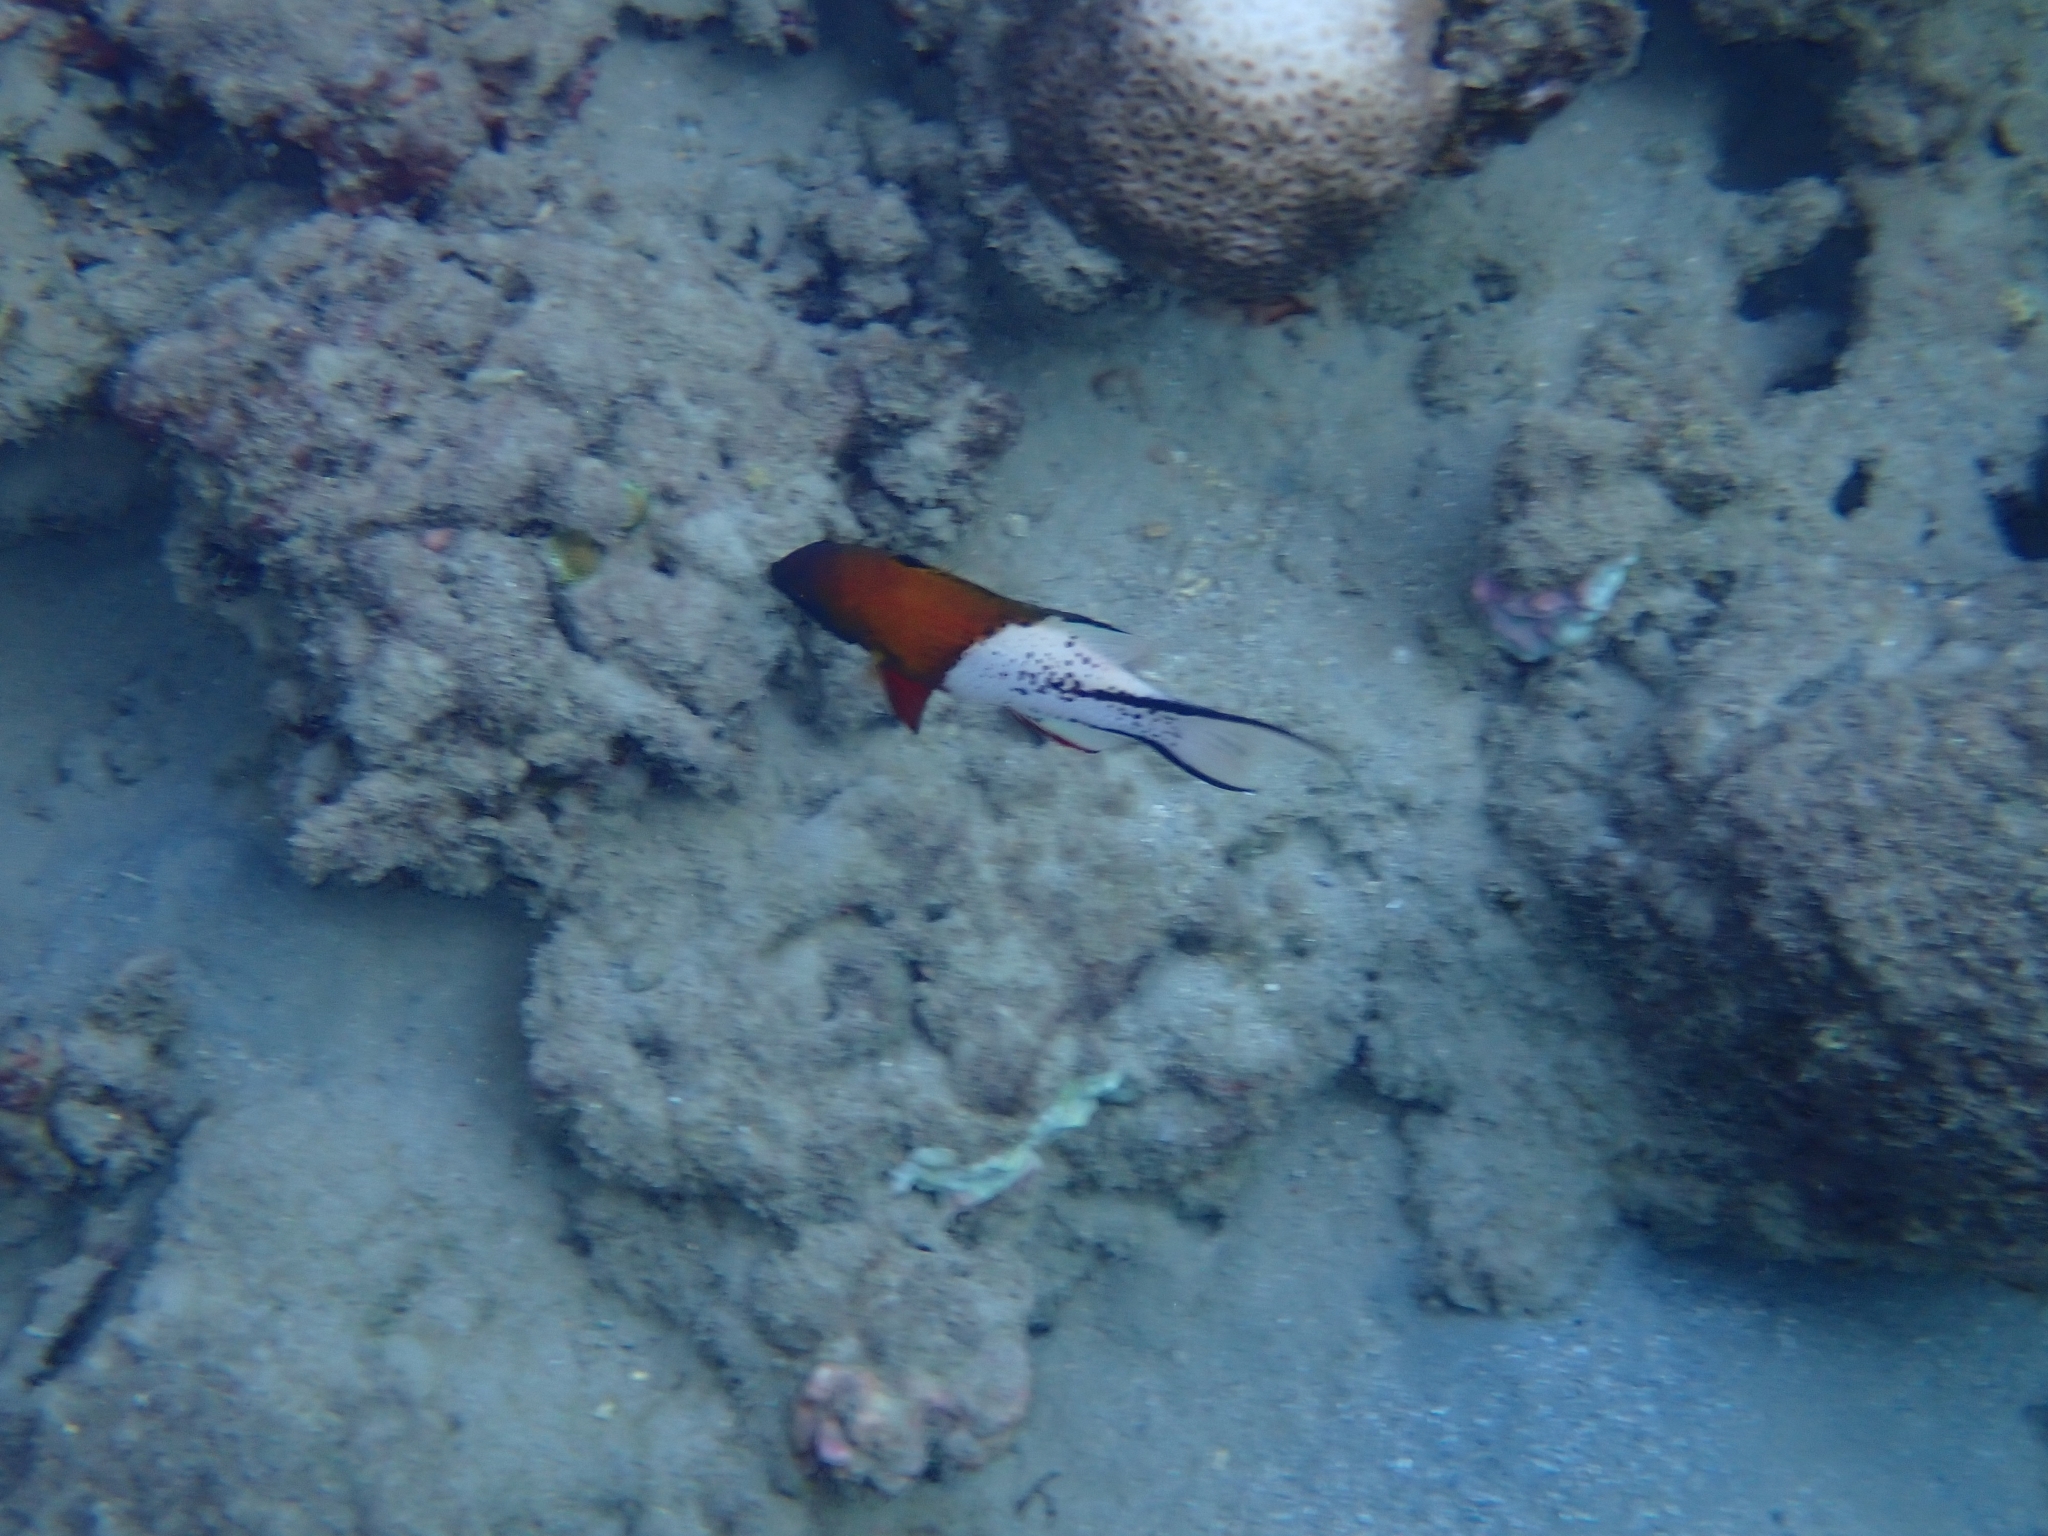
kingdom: Animalia
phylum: Chordata
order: Perciformes
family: Labridae
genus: Bodianus
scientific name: Bodianus anthioides
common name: Lyretail hogfish
